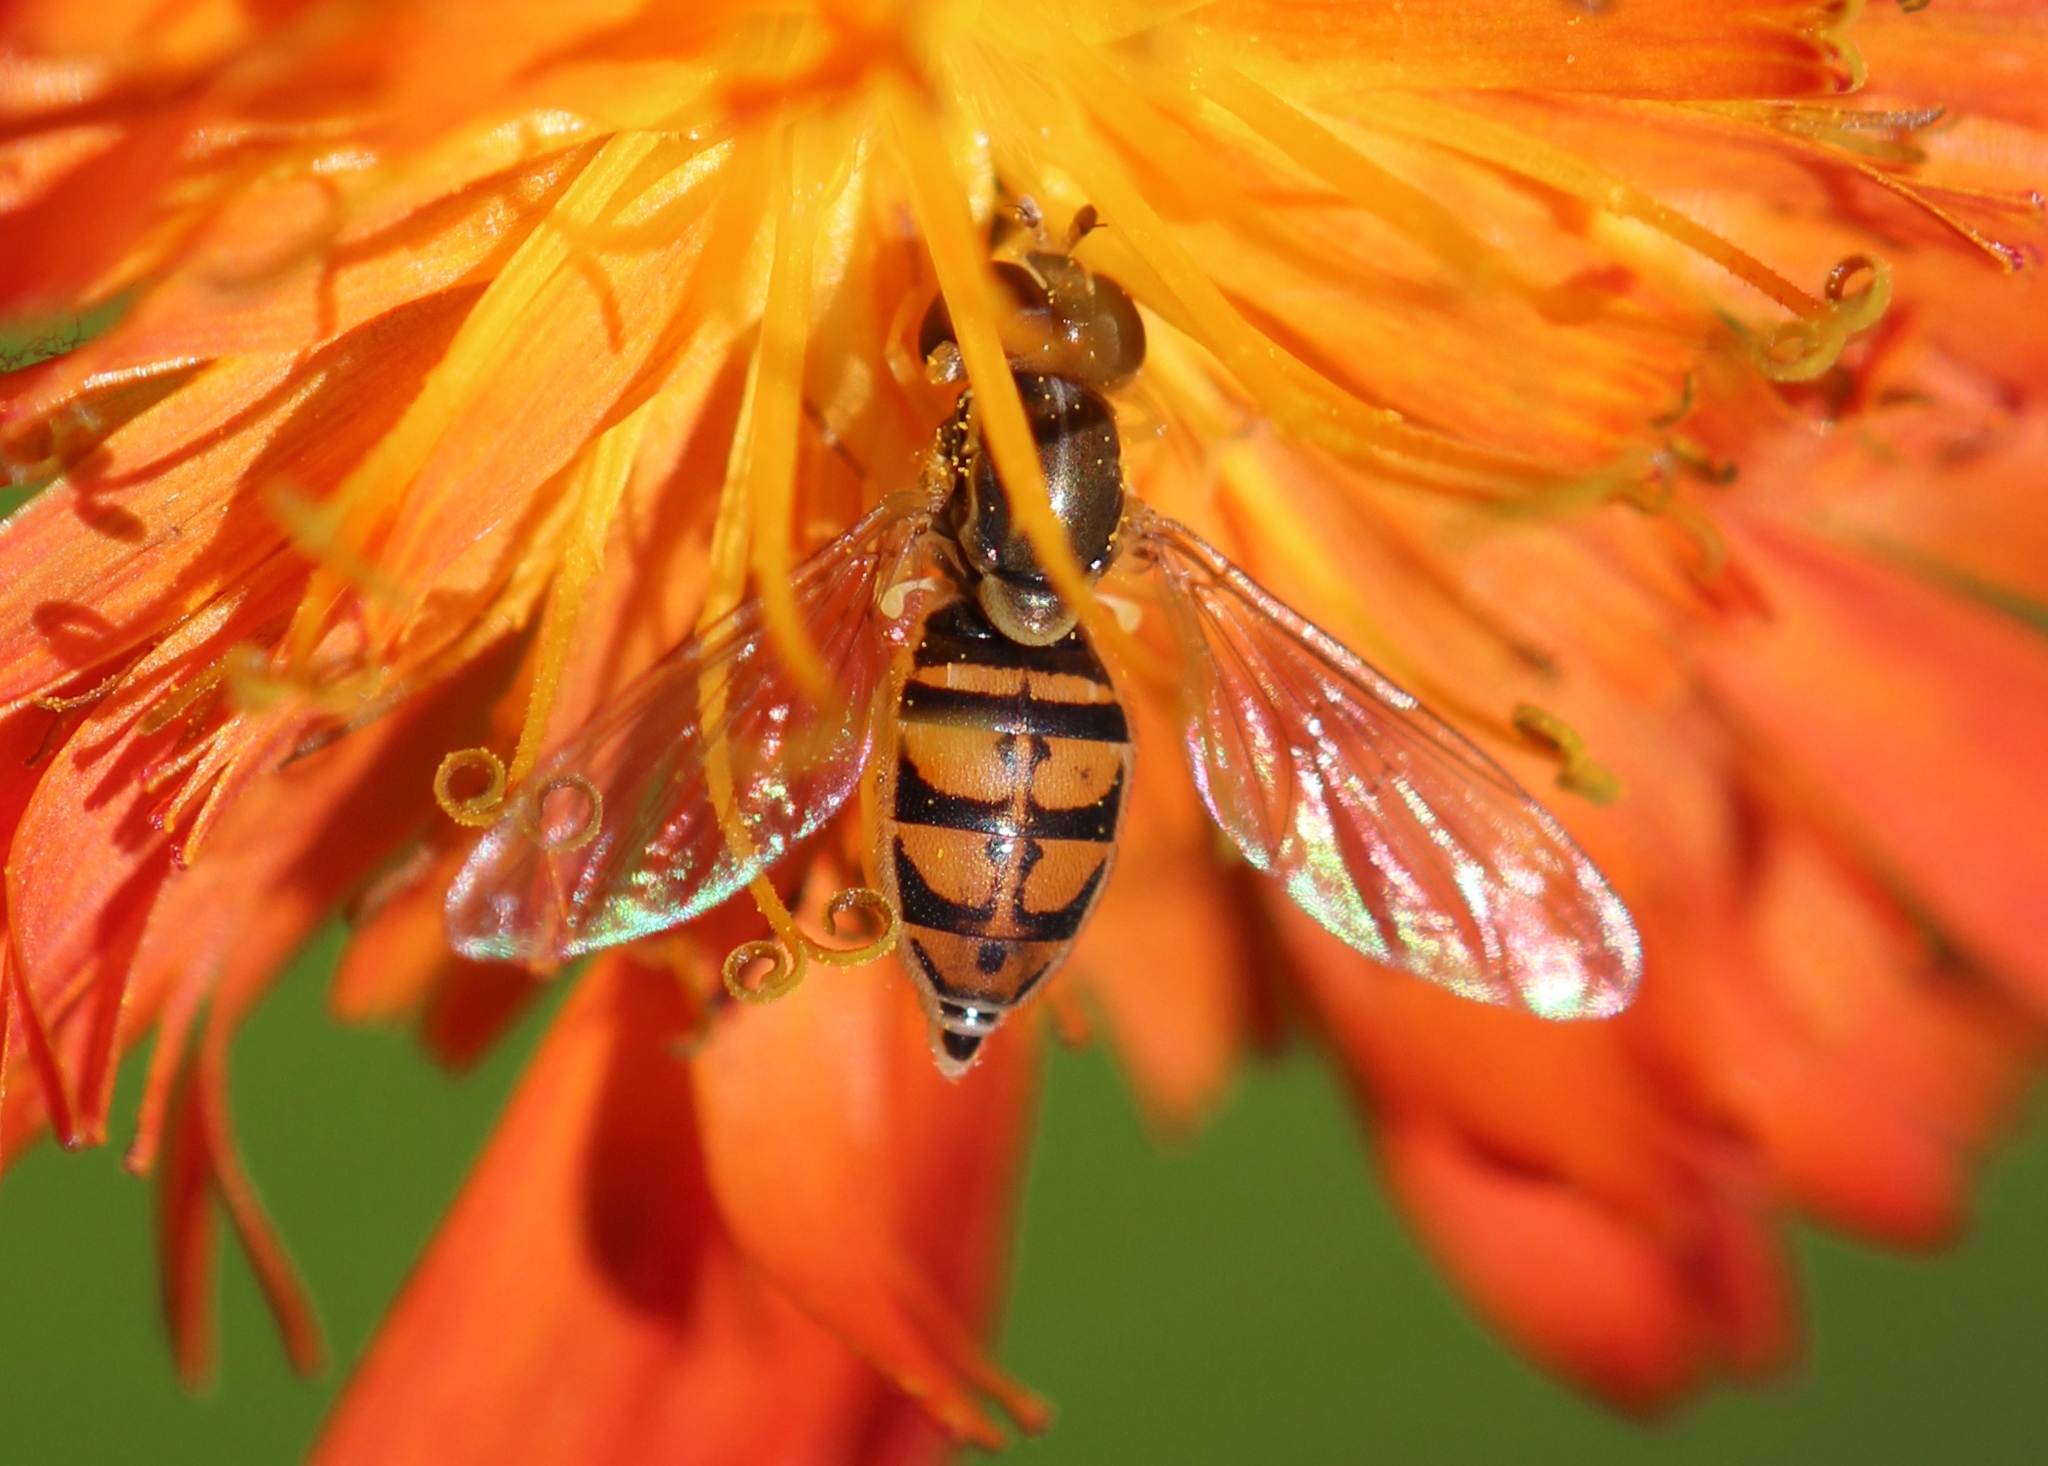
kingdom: Animalia
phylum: Arthropoda
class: Insecta
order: Diptera
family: Syrphidae
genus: Toxomerus
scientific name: Toxomerus marginatus
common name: Syrphid fly
